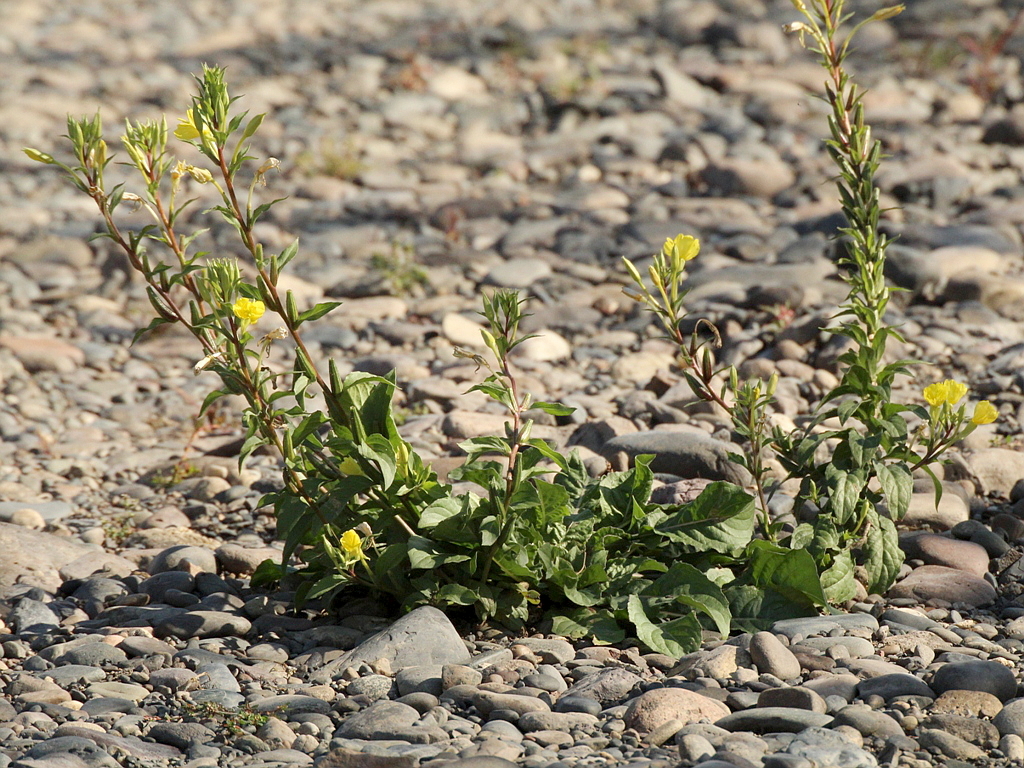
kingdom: Plantae
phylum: Tracheophyta
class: Magnoliopsida
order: Myrtales
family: Onagraceae
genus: Oenothera
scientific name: Oenothera rubricaulis
